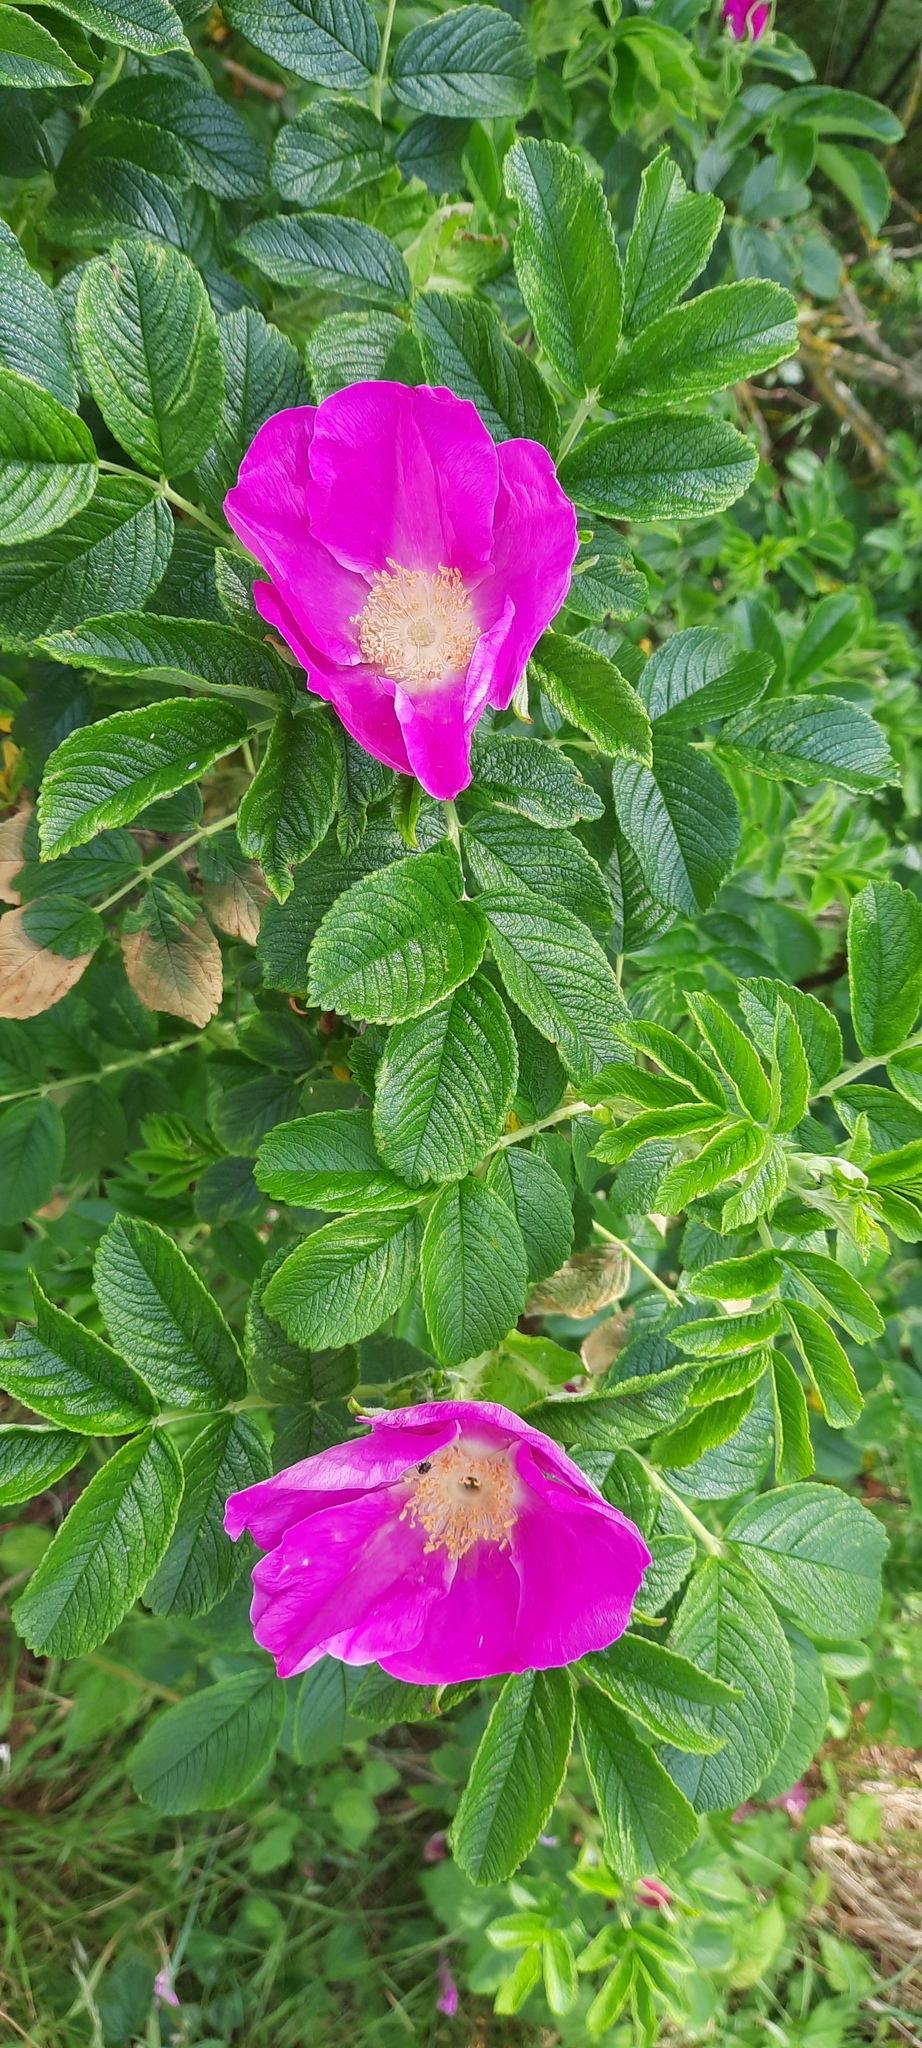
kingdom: Plantae
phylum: Tracheophyta
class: Magnoliopsida
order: Rosales
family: Rosaceae
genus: Rosa
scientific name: Rosa rugosa
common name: Japanese rose
